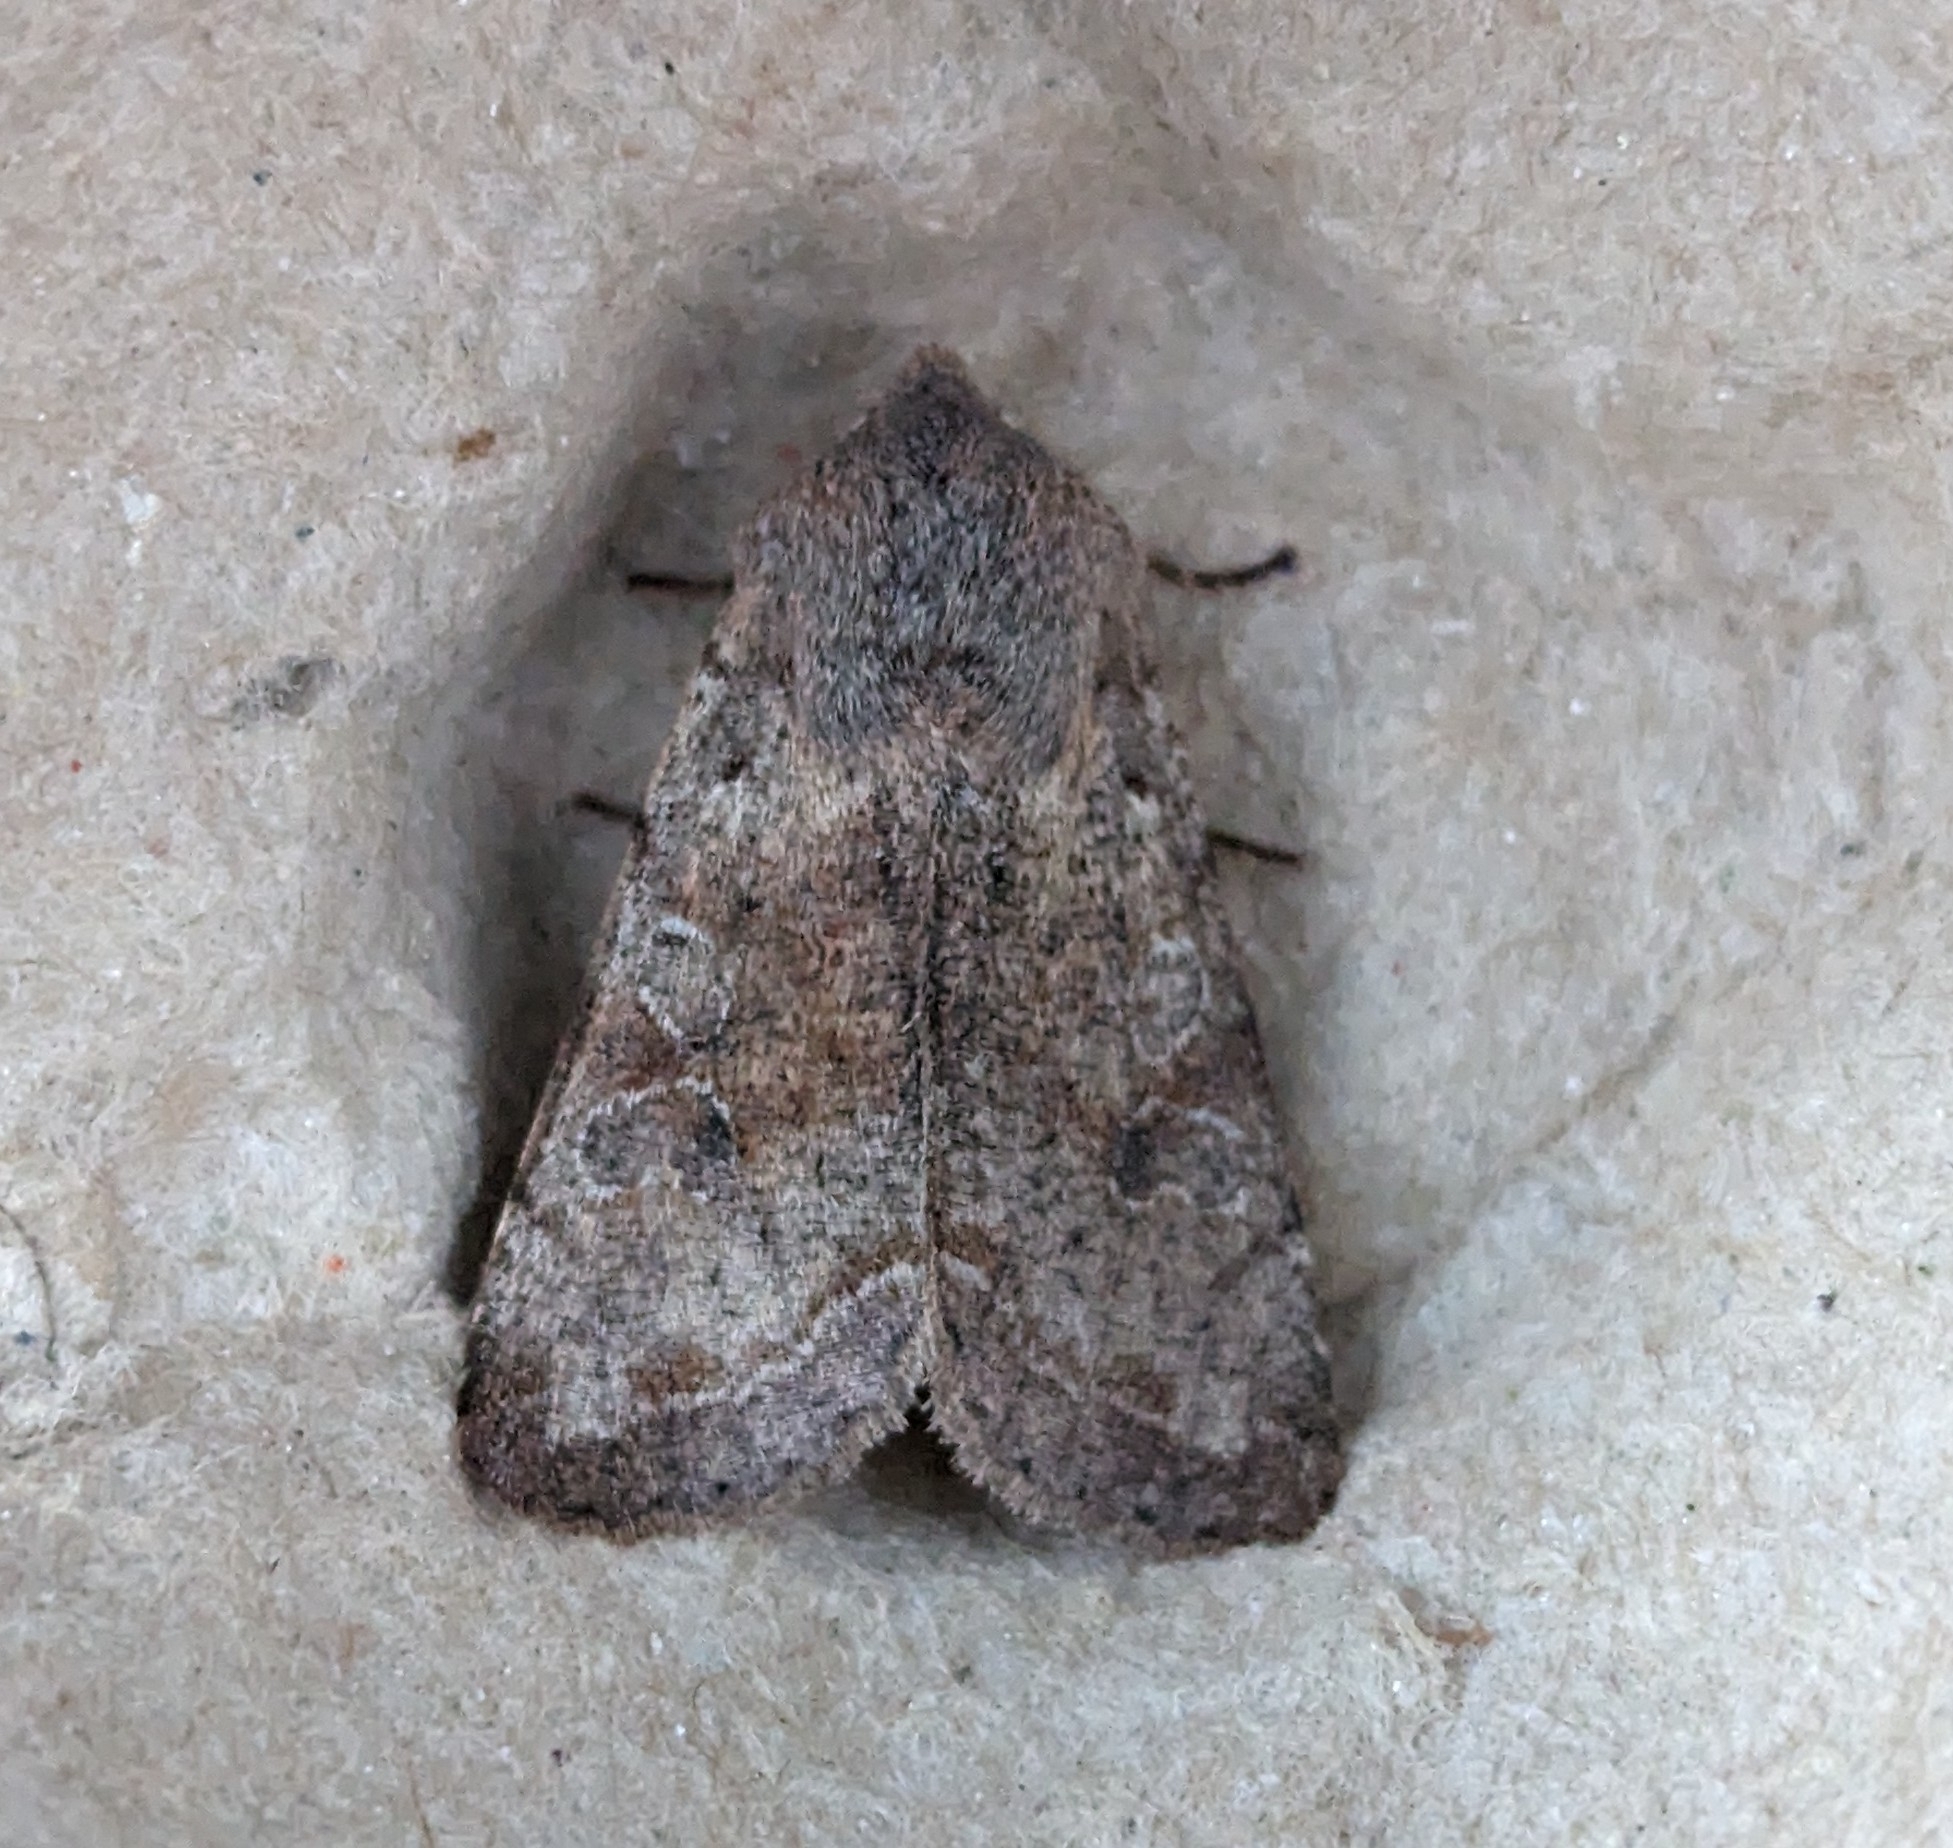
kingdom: Animalia
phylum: Arthropoda
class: Insecta
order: Lepidoptera
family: Noctuidae
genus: Orthosia
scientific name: Orthosia hibisci
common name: Green fruitworm
